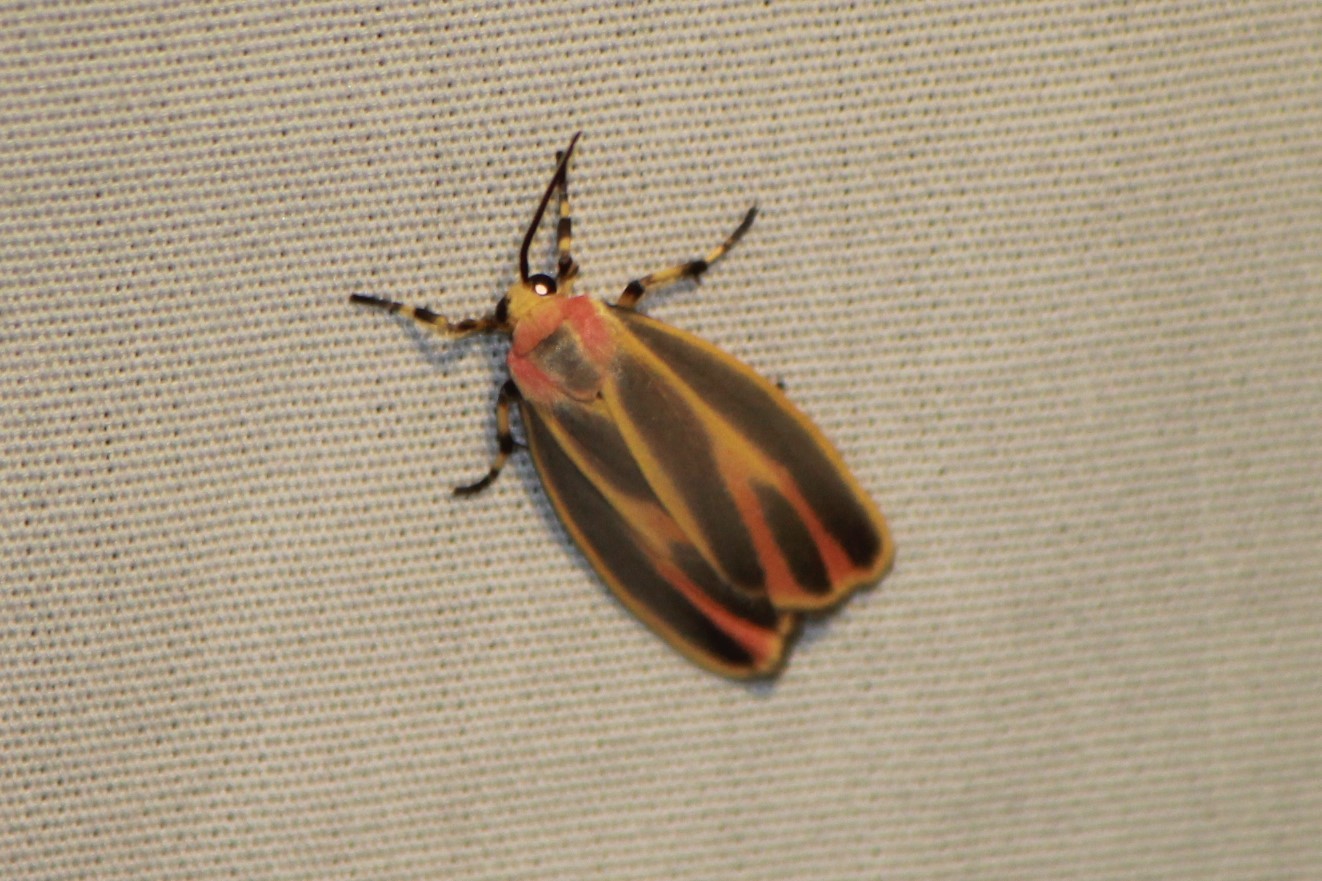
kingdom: Animalia
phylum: Arthropoda
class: Insecta
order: Lepidoptera
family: Erebidae
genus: Hypoprepia
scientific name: Hypoprepia fucosa
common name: Painted lichen moth
